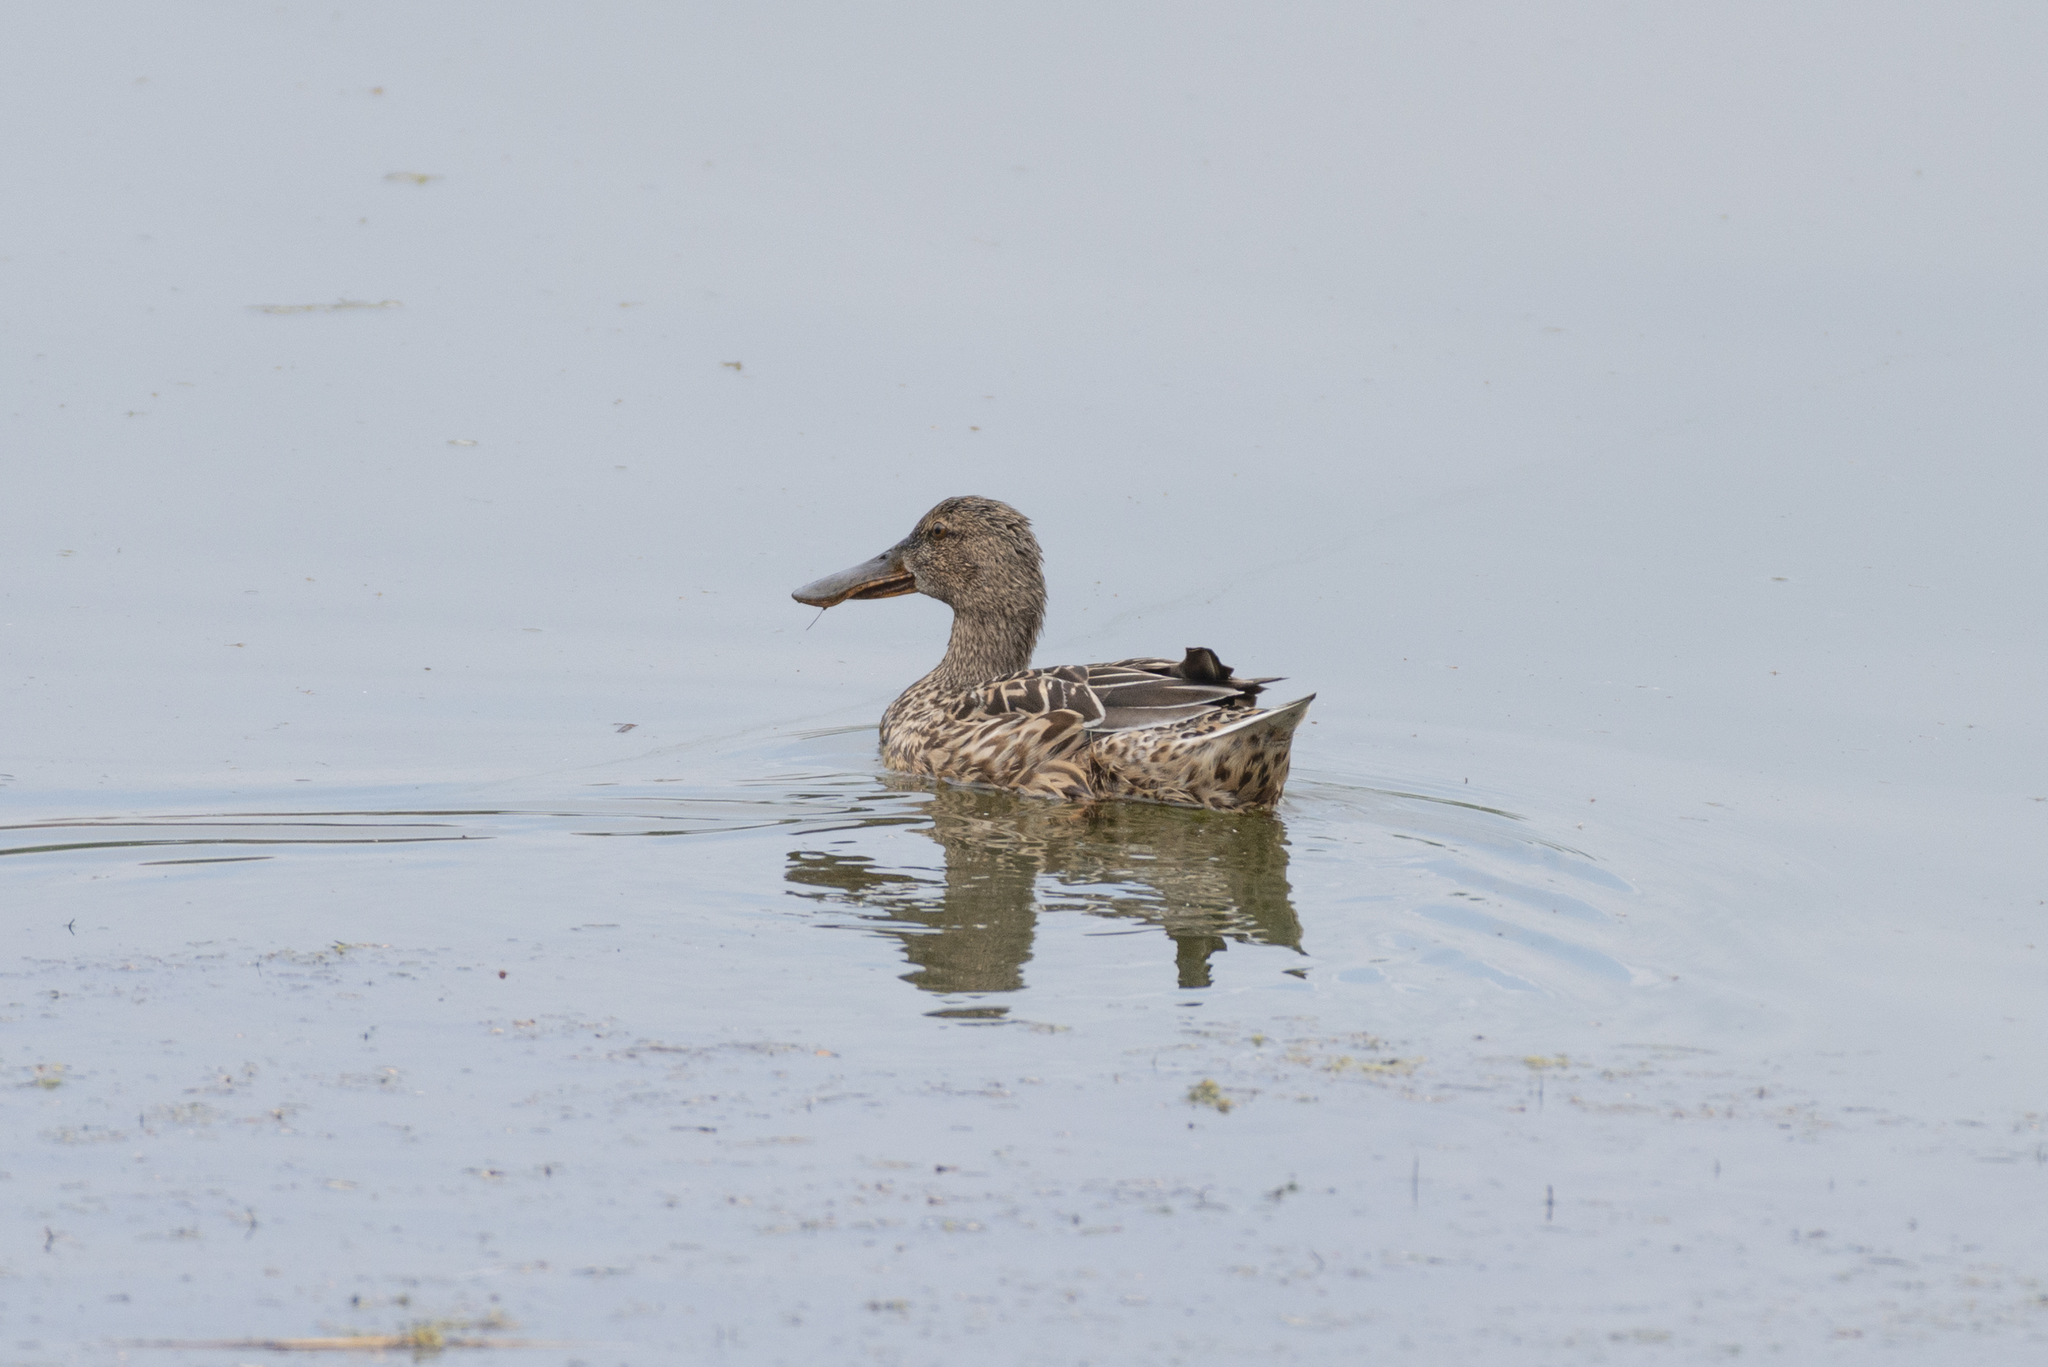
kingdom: Animalia
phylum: Chordata
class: Aves
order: Anseriformes
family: Anatidae
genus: Spatula
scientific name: Spatula clypeata
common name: Northern shoveler
